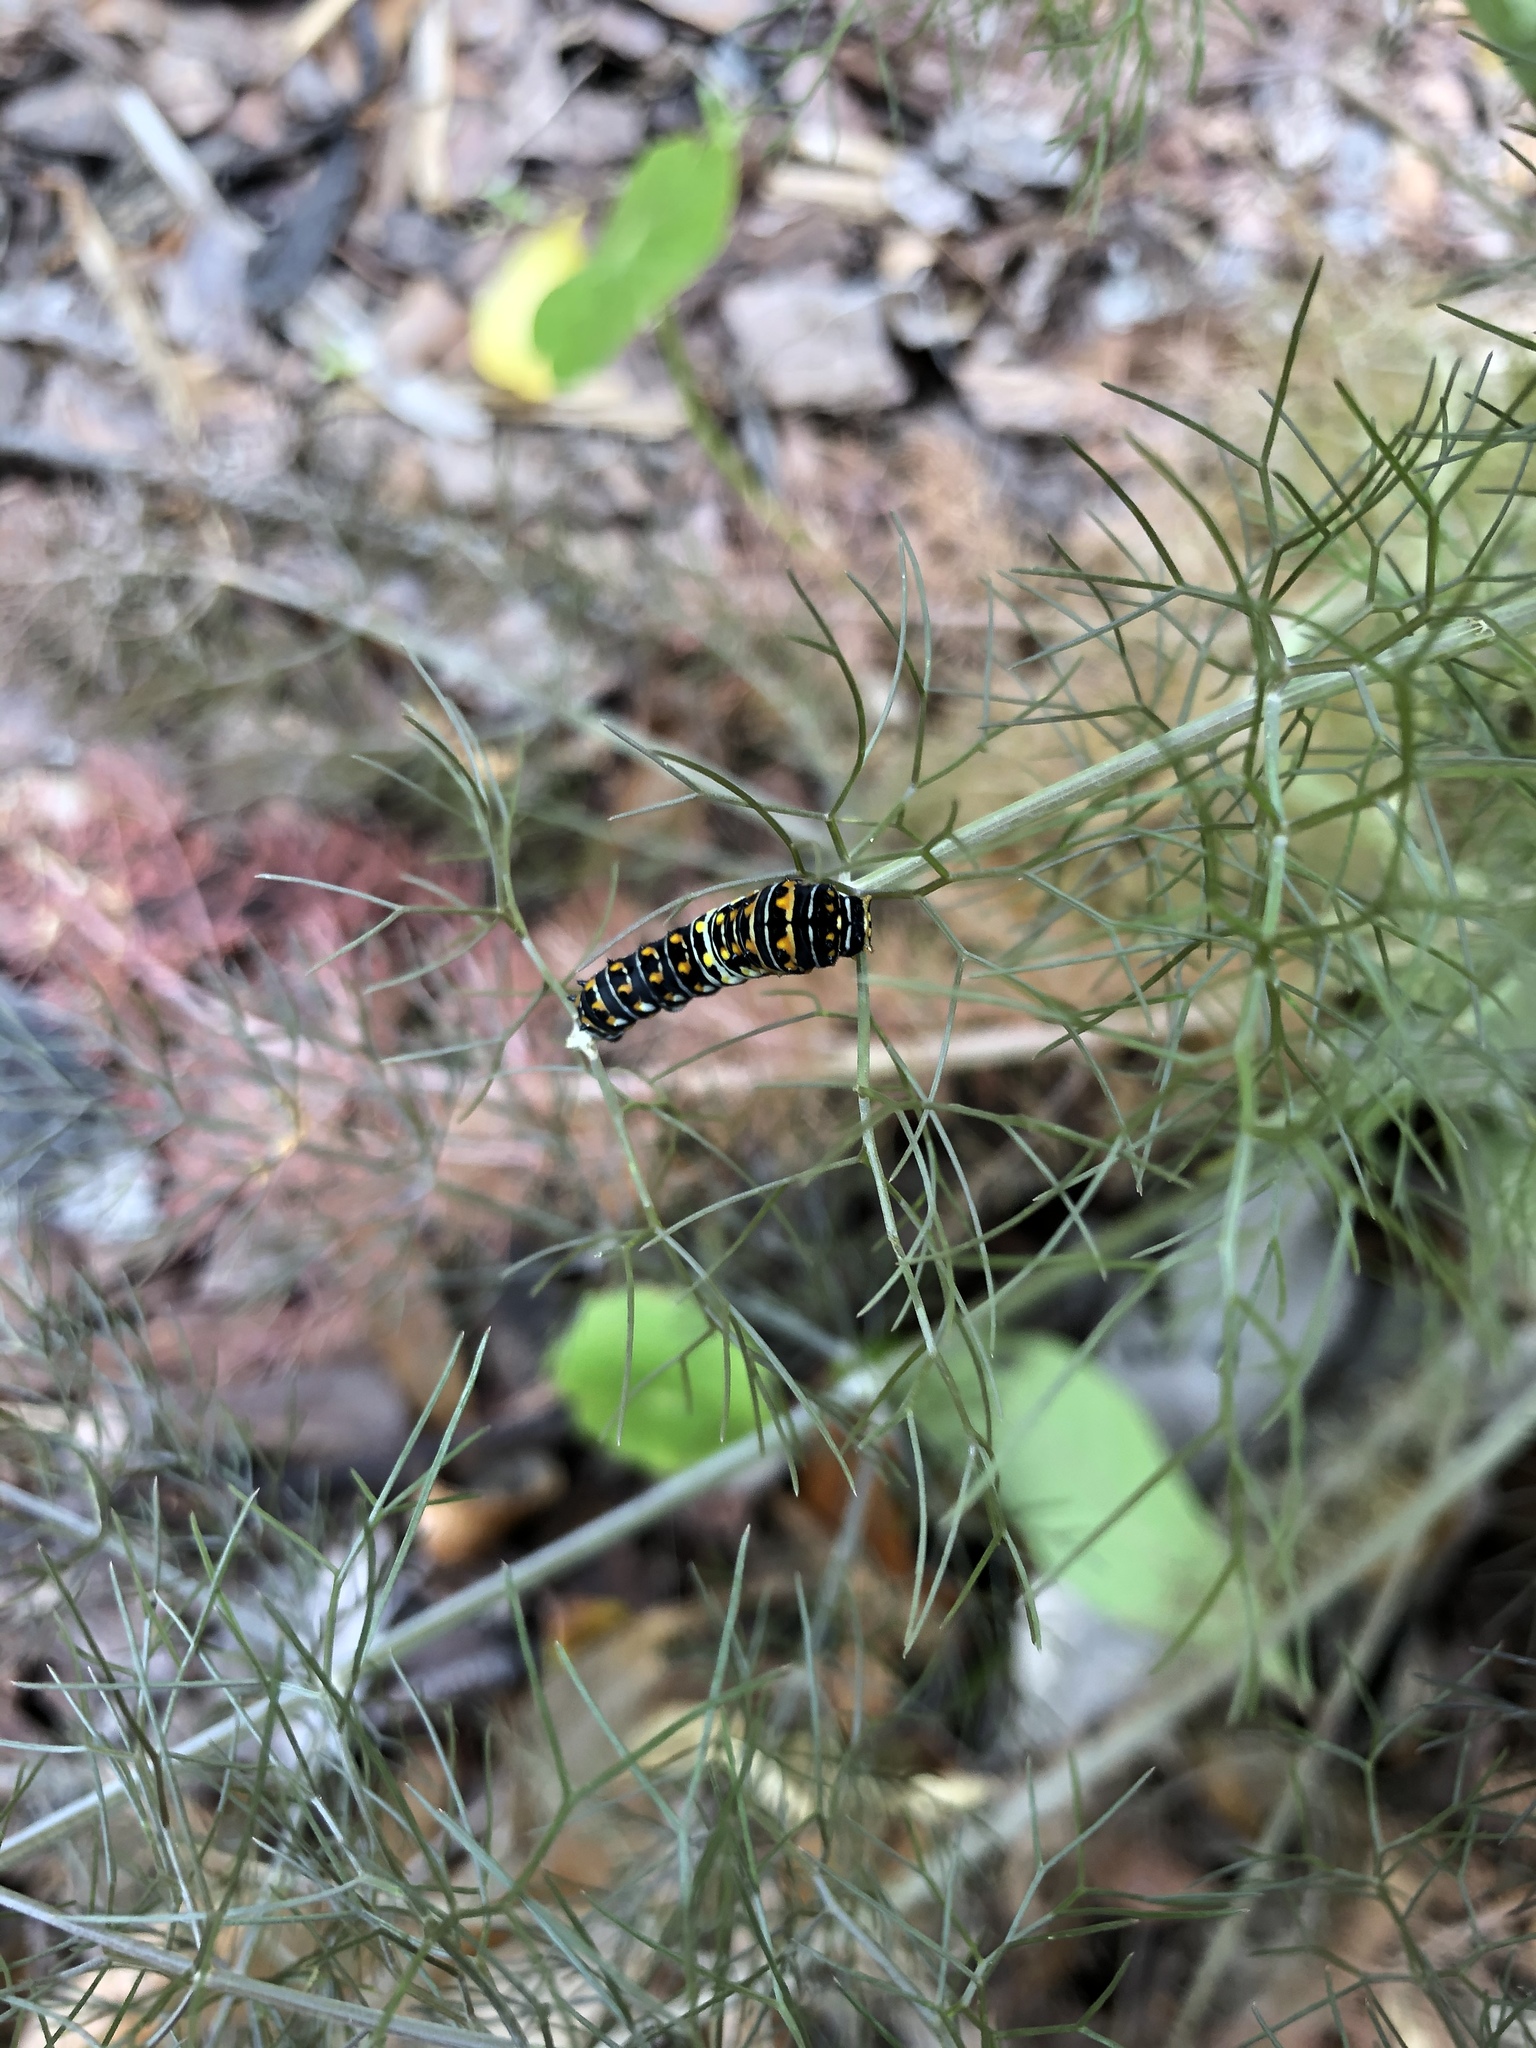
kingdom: Animalia
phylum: Arthropoda
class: Insecta
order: Lepidoptera
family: Papilionidae
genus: Papilio
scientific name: Papilio polyxenes
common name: Black swallowtail
